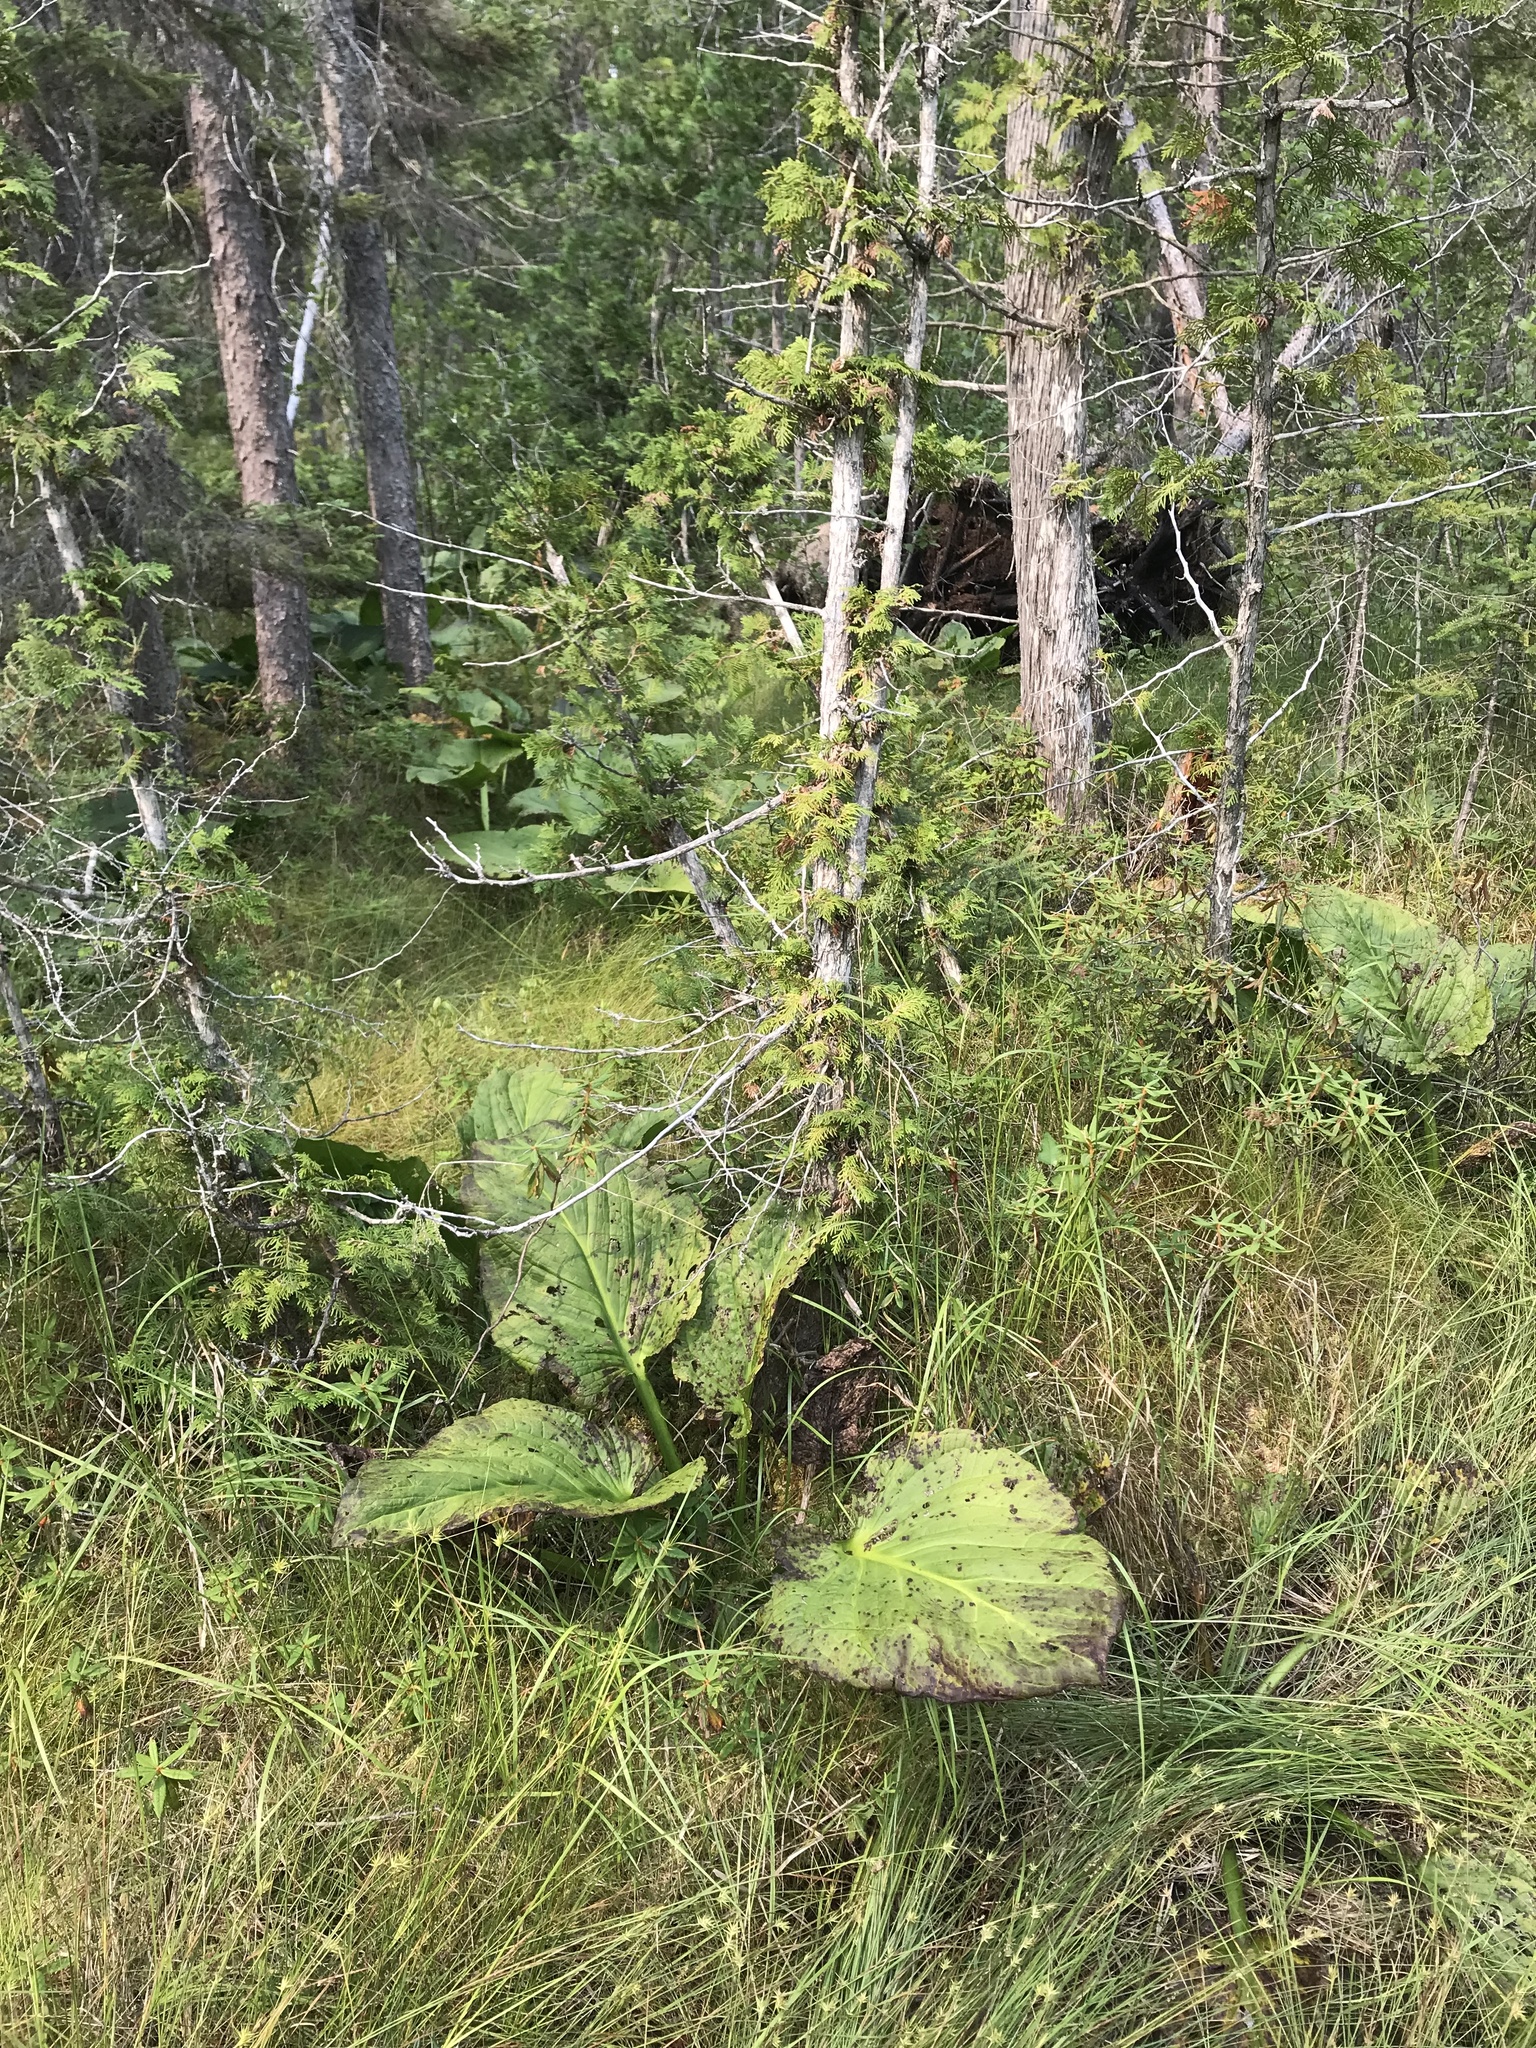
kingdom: Plantae
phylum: Tracheophyta
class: Liliopsida
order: Alismatales
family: Araceae
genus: Symplocarpus
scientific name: Symplocarpus foetidus
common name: Eastern skunk cabbage
